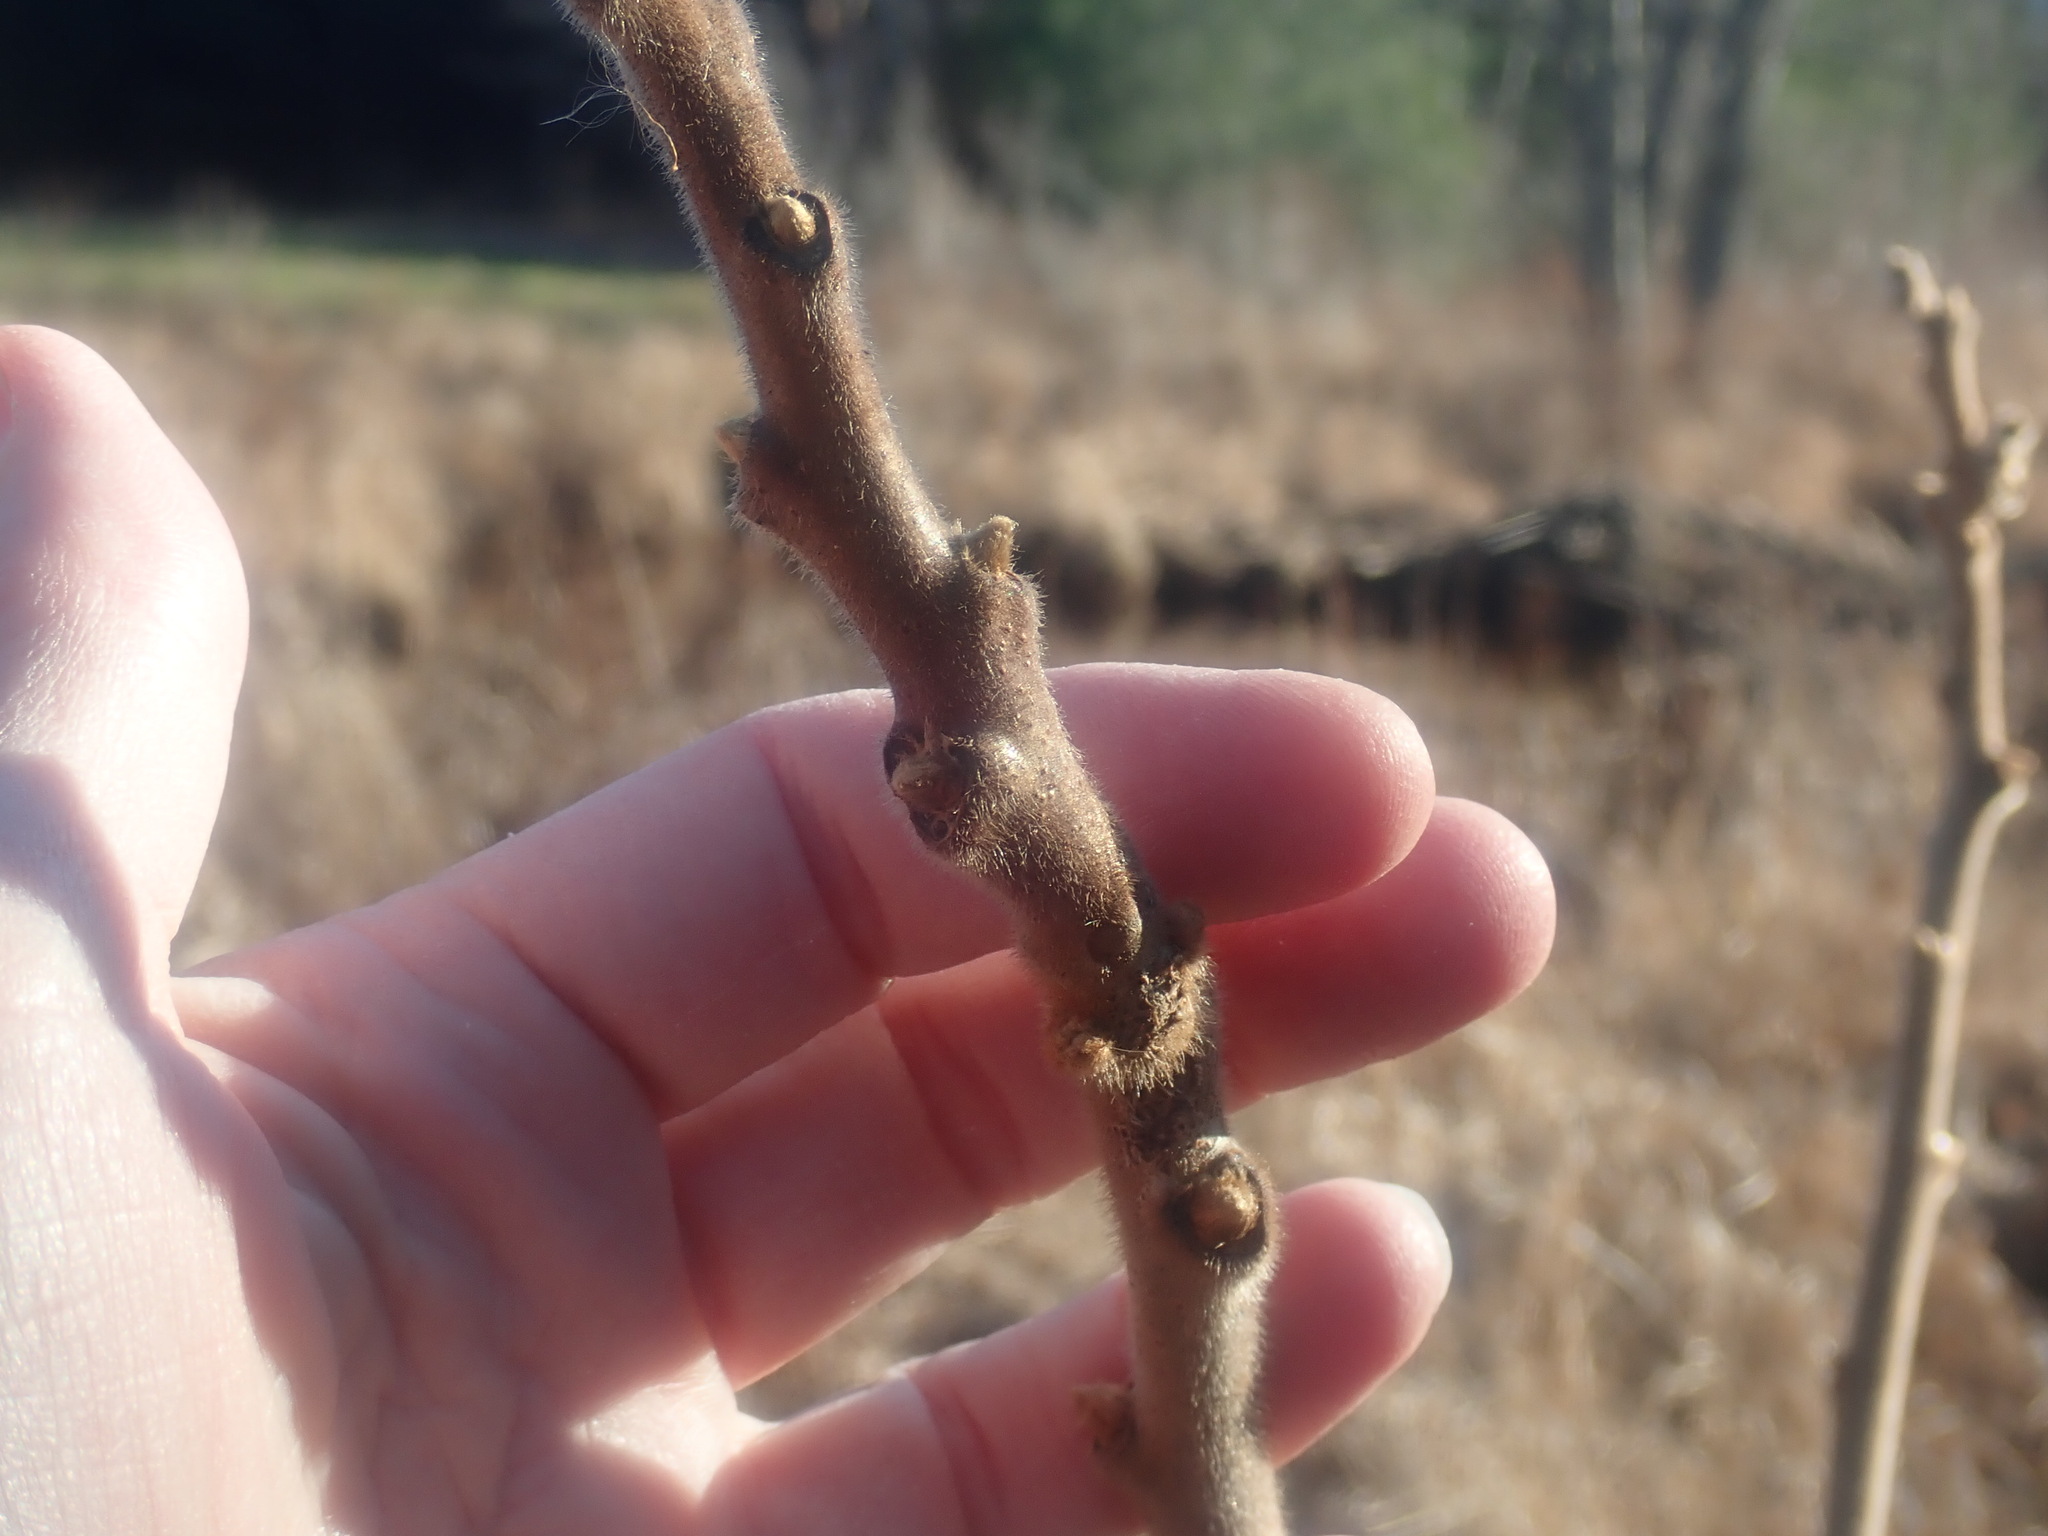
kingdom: Plantae
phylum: Tracheophyta
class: Magnoliopsida
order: Sapindales
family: Anacardiaceae
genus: Rhus
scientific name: Rhus typhina
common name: Staghorn sumac
